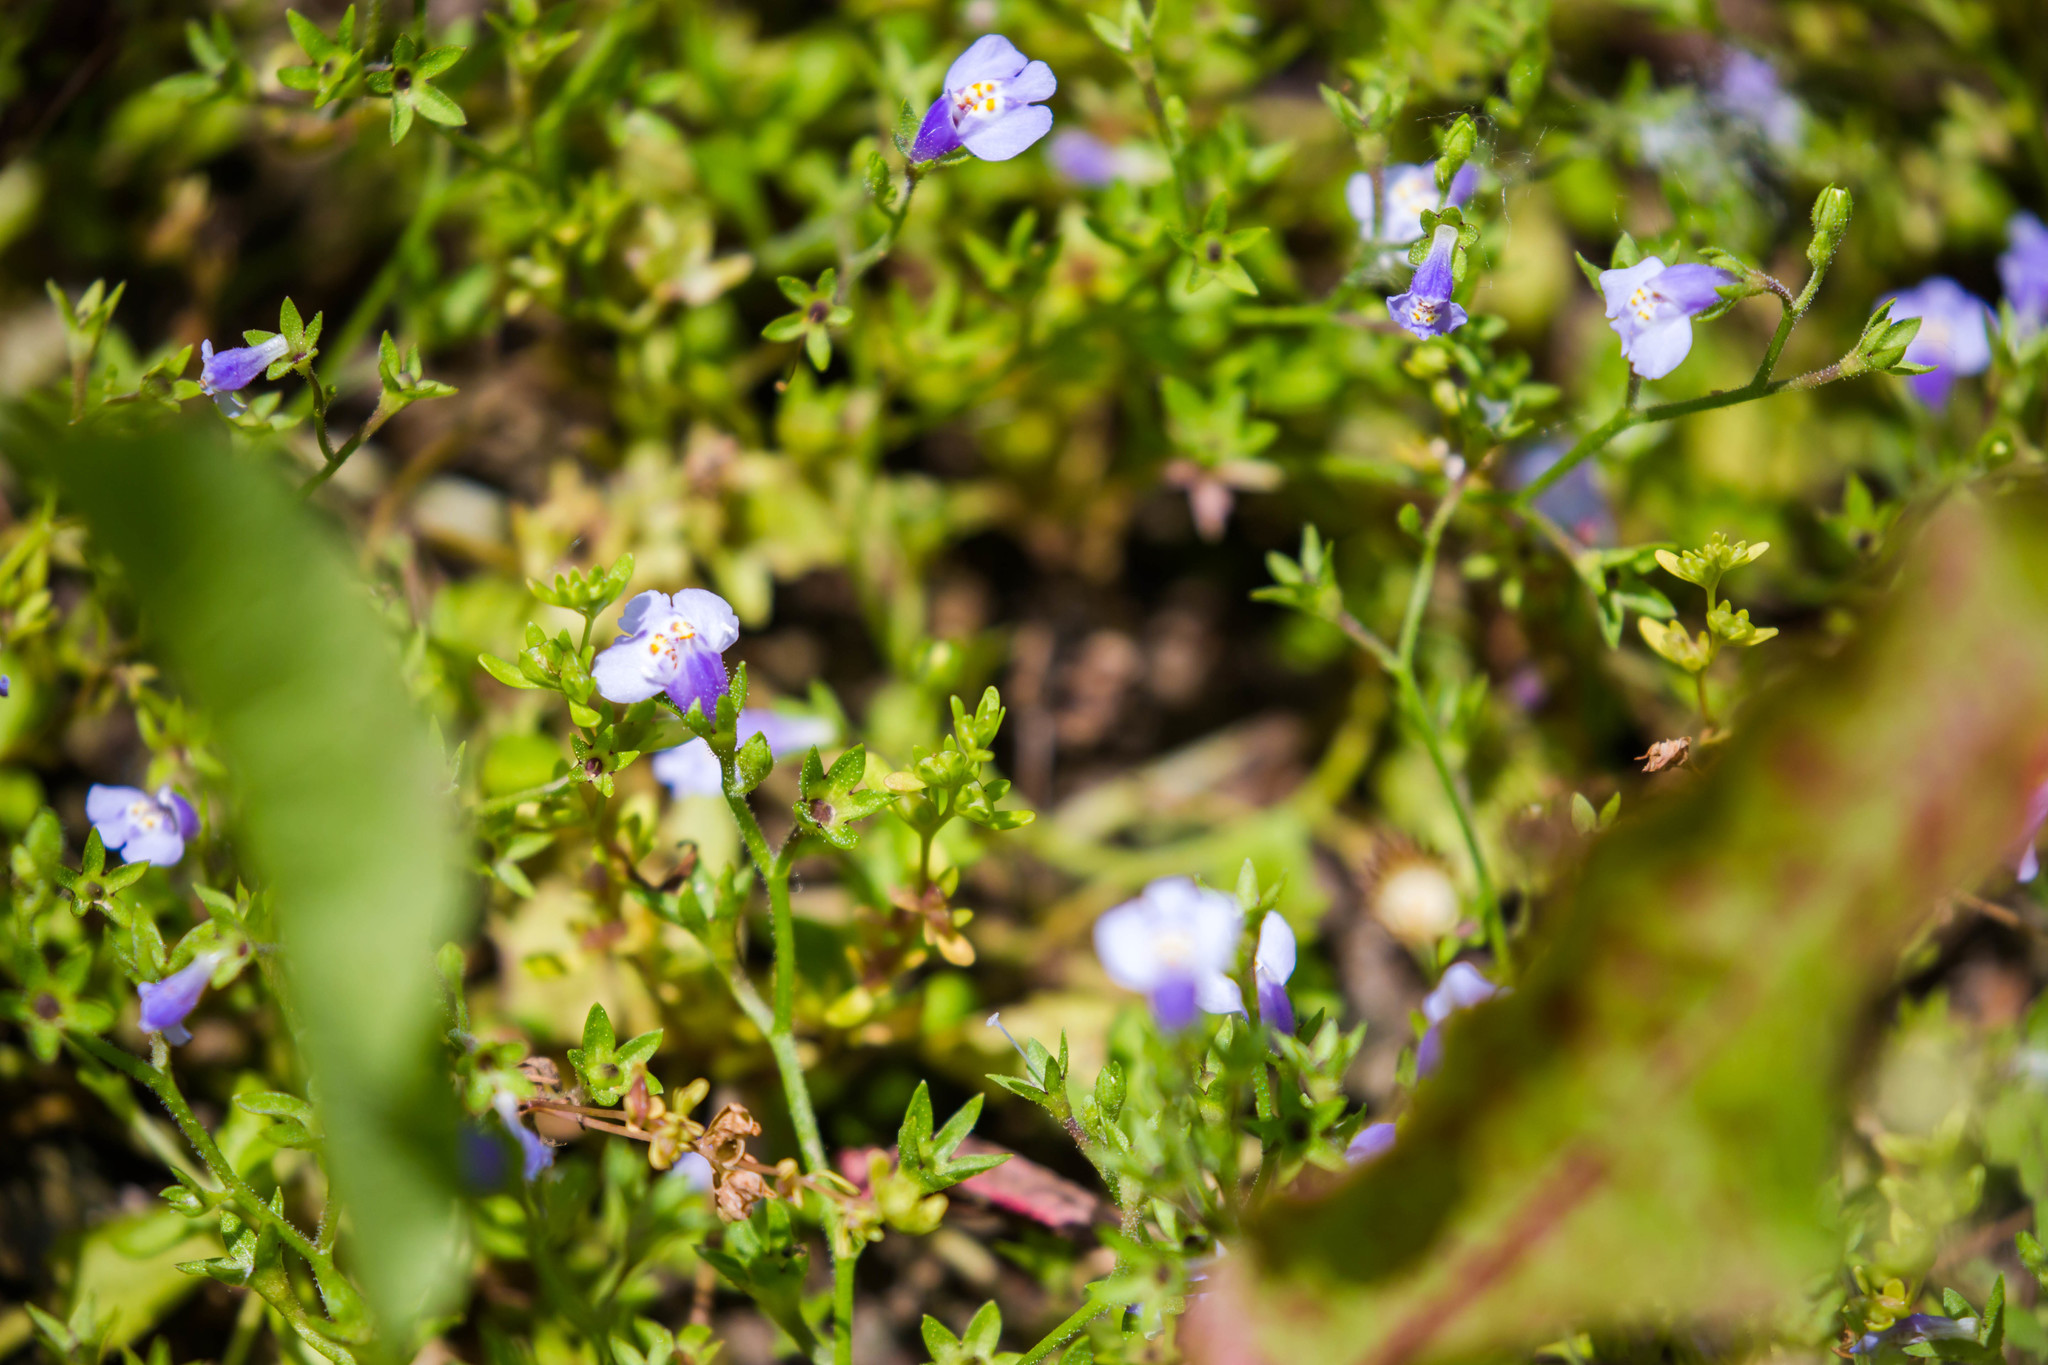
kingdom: Plantae
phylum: Tracheophyta
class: Magnoliopsida
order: Lamiales
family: Mazaceae
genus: Mazus
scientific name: Mazus pumilus
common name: Japanese mazus
